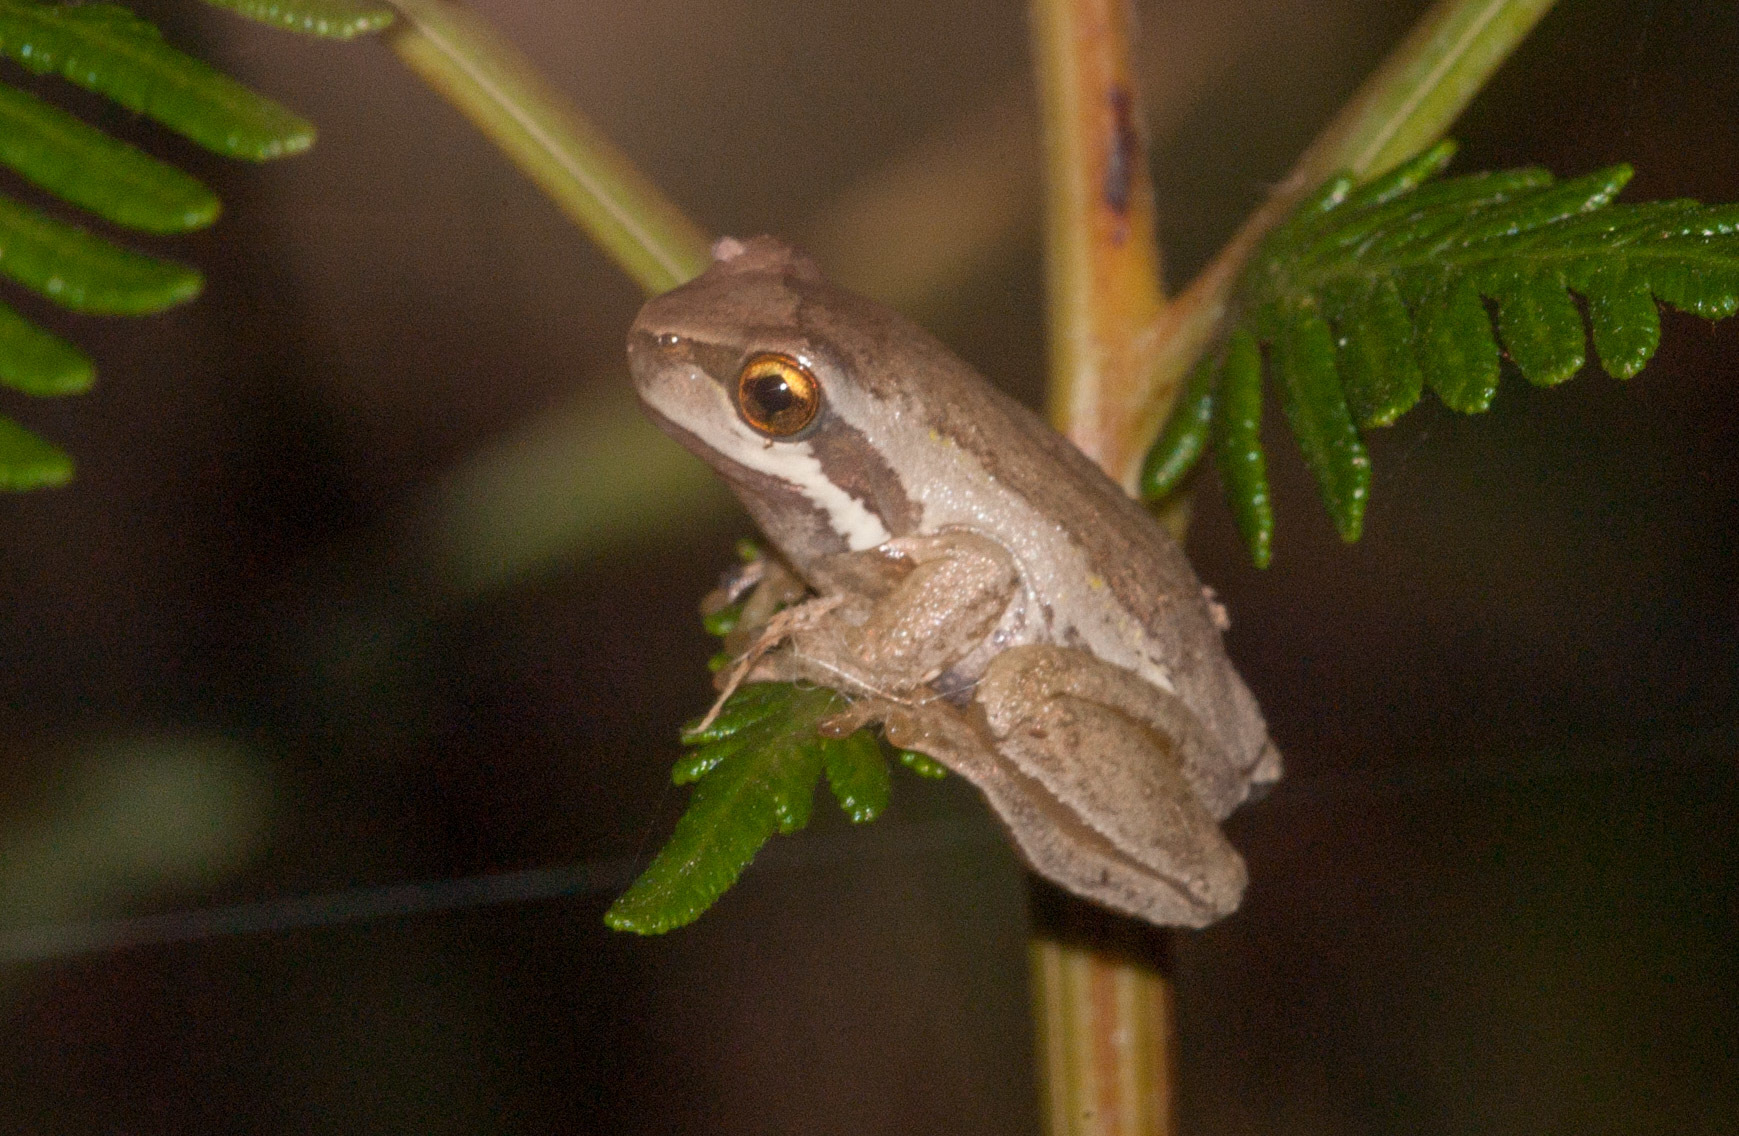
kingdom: Animalia
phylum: Chordata
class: Amphibia
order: Anura
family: Pelodryadidae
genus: Litoria
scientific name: Litoria ewingii
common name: Southern brown tree frog
